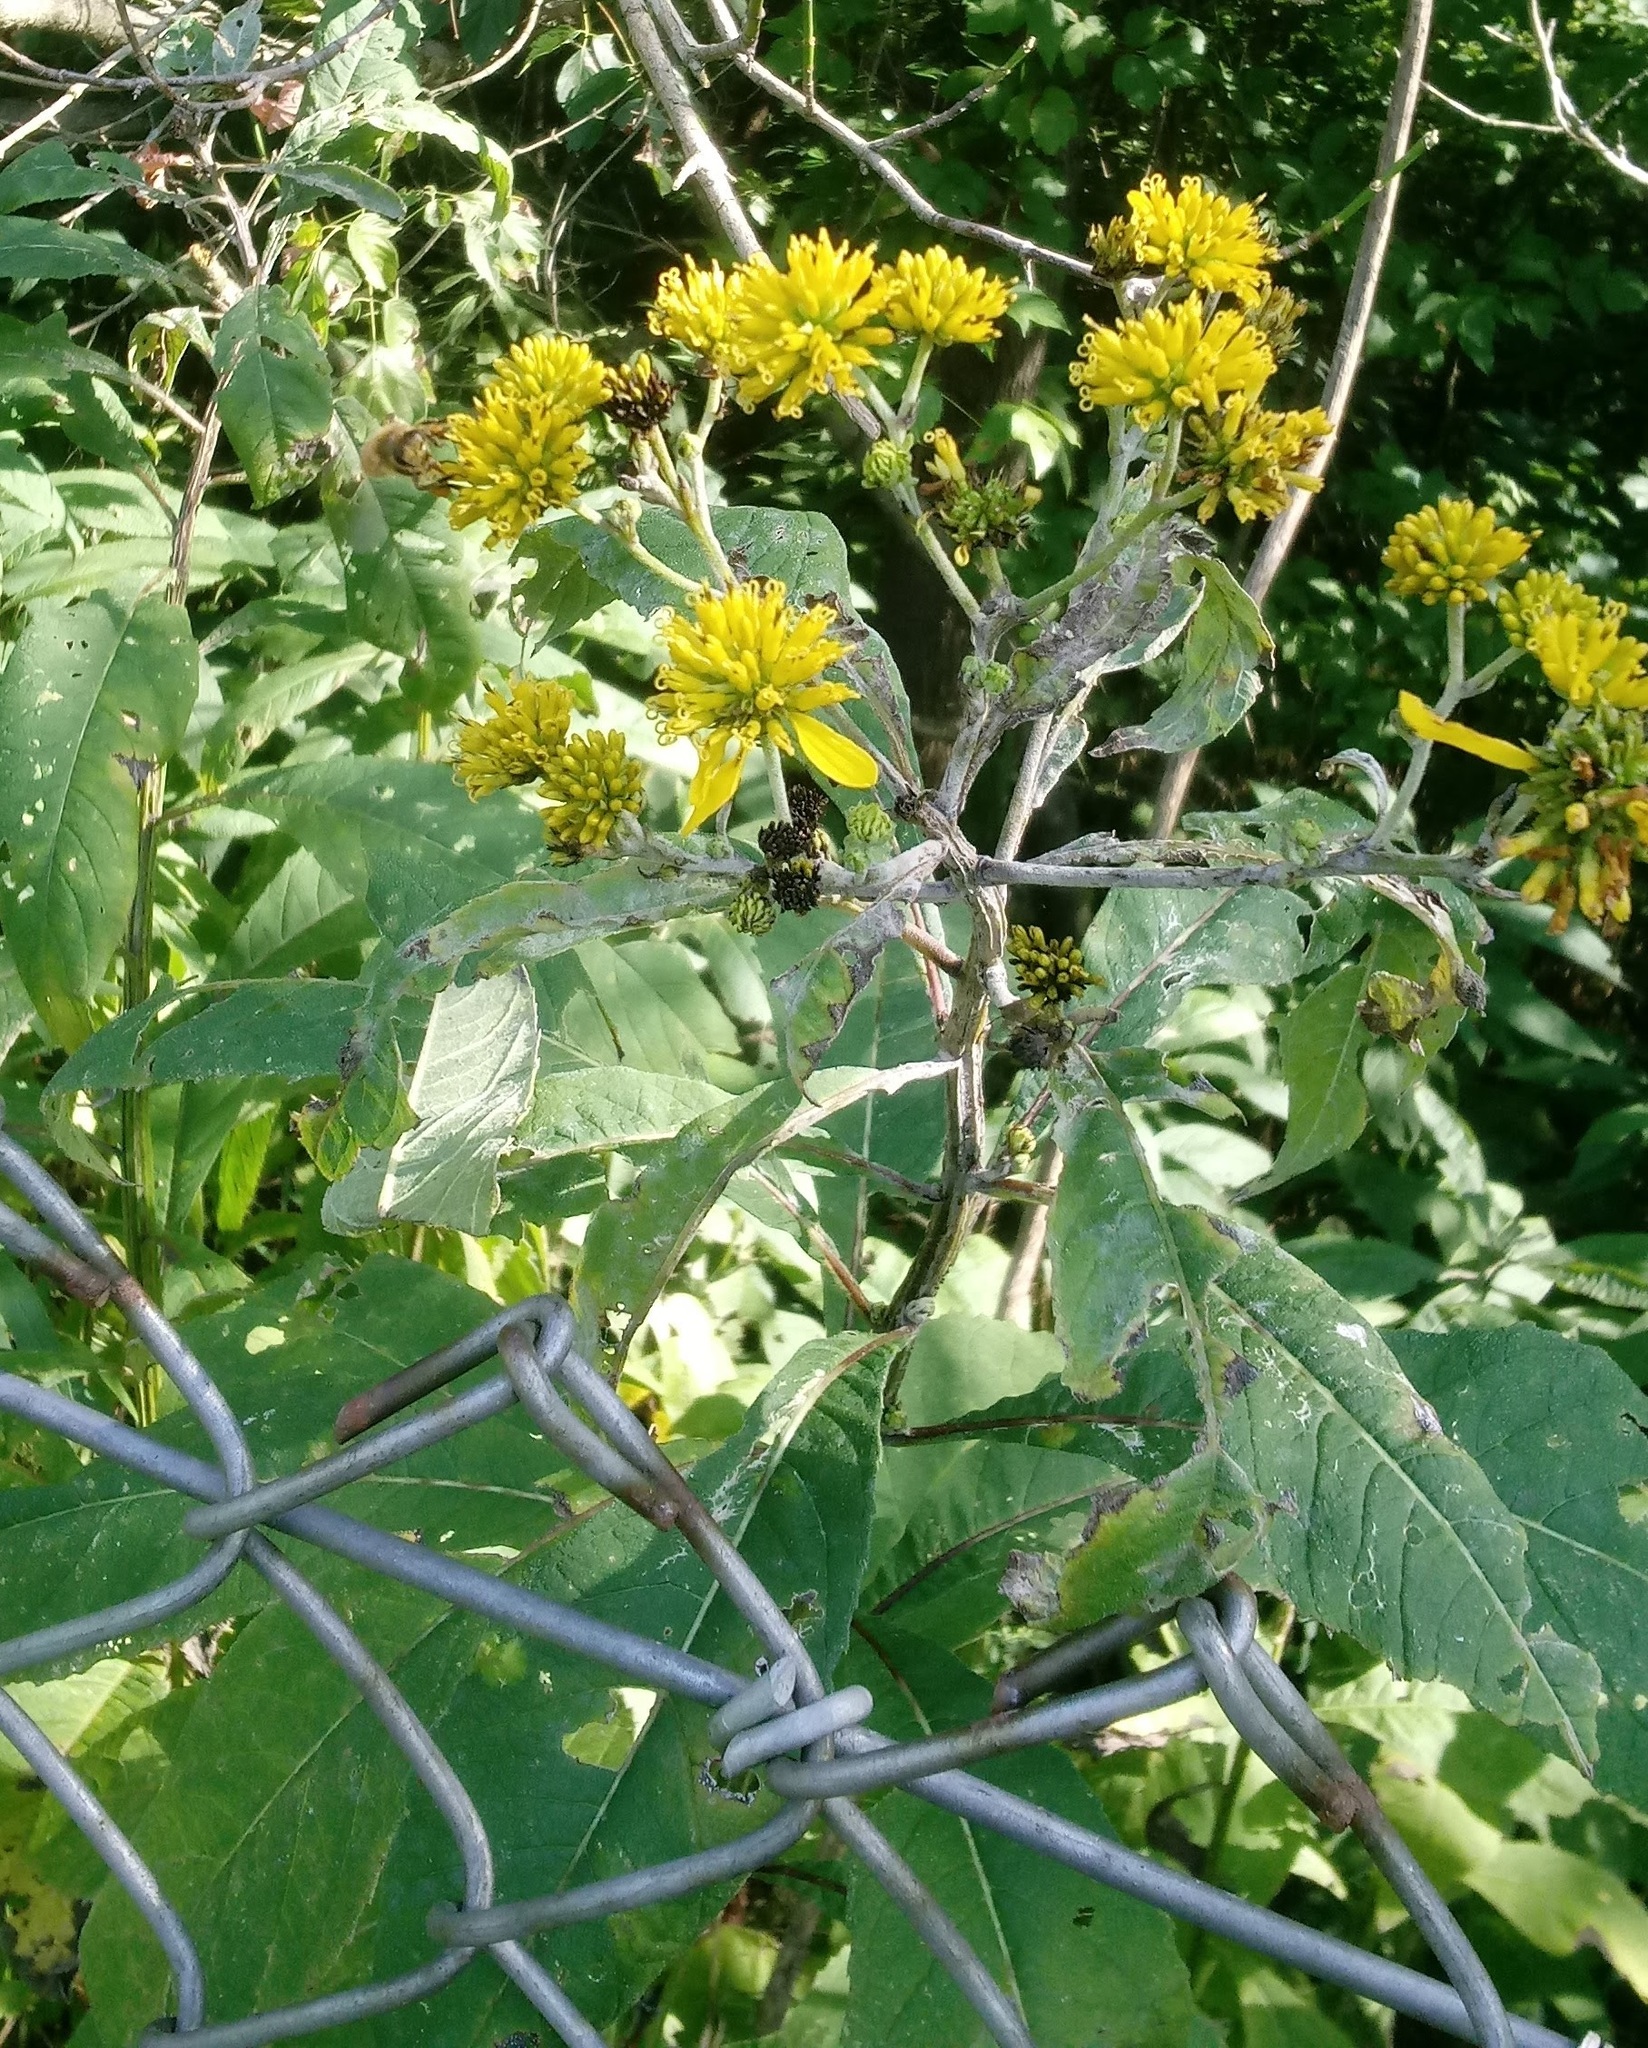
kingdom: Plantae
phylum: Tracheophyta
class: Magnoliopsida
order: Asterales
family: Asteraceae
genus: Verbesina
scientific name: Verbesina alternifolia
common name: Wingstem
